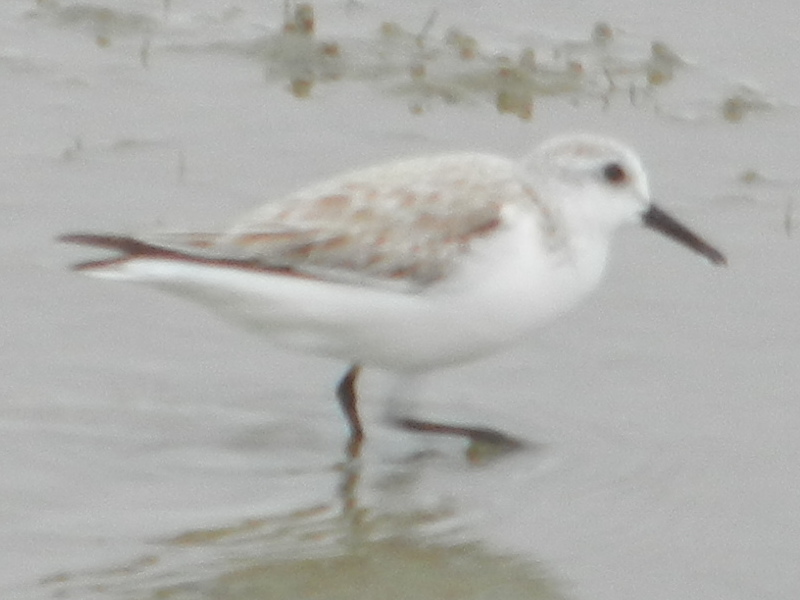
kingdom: Animalia
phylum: Chordata
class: Aves
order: Charadriiformes
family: Scolopacidae
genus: Calidris
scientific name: Calidris alba
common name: Sanderling
